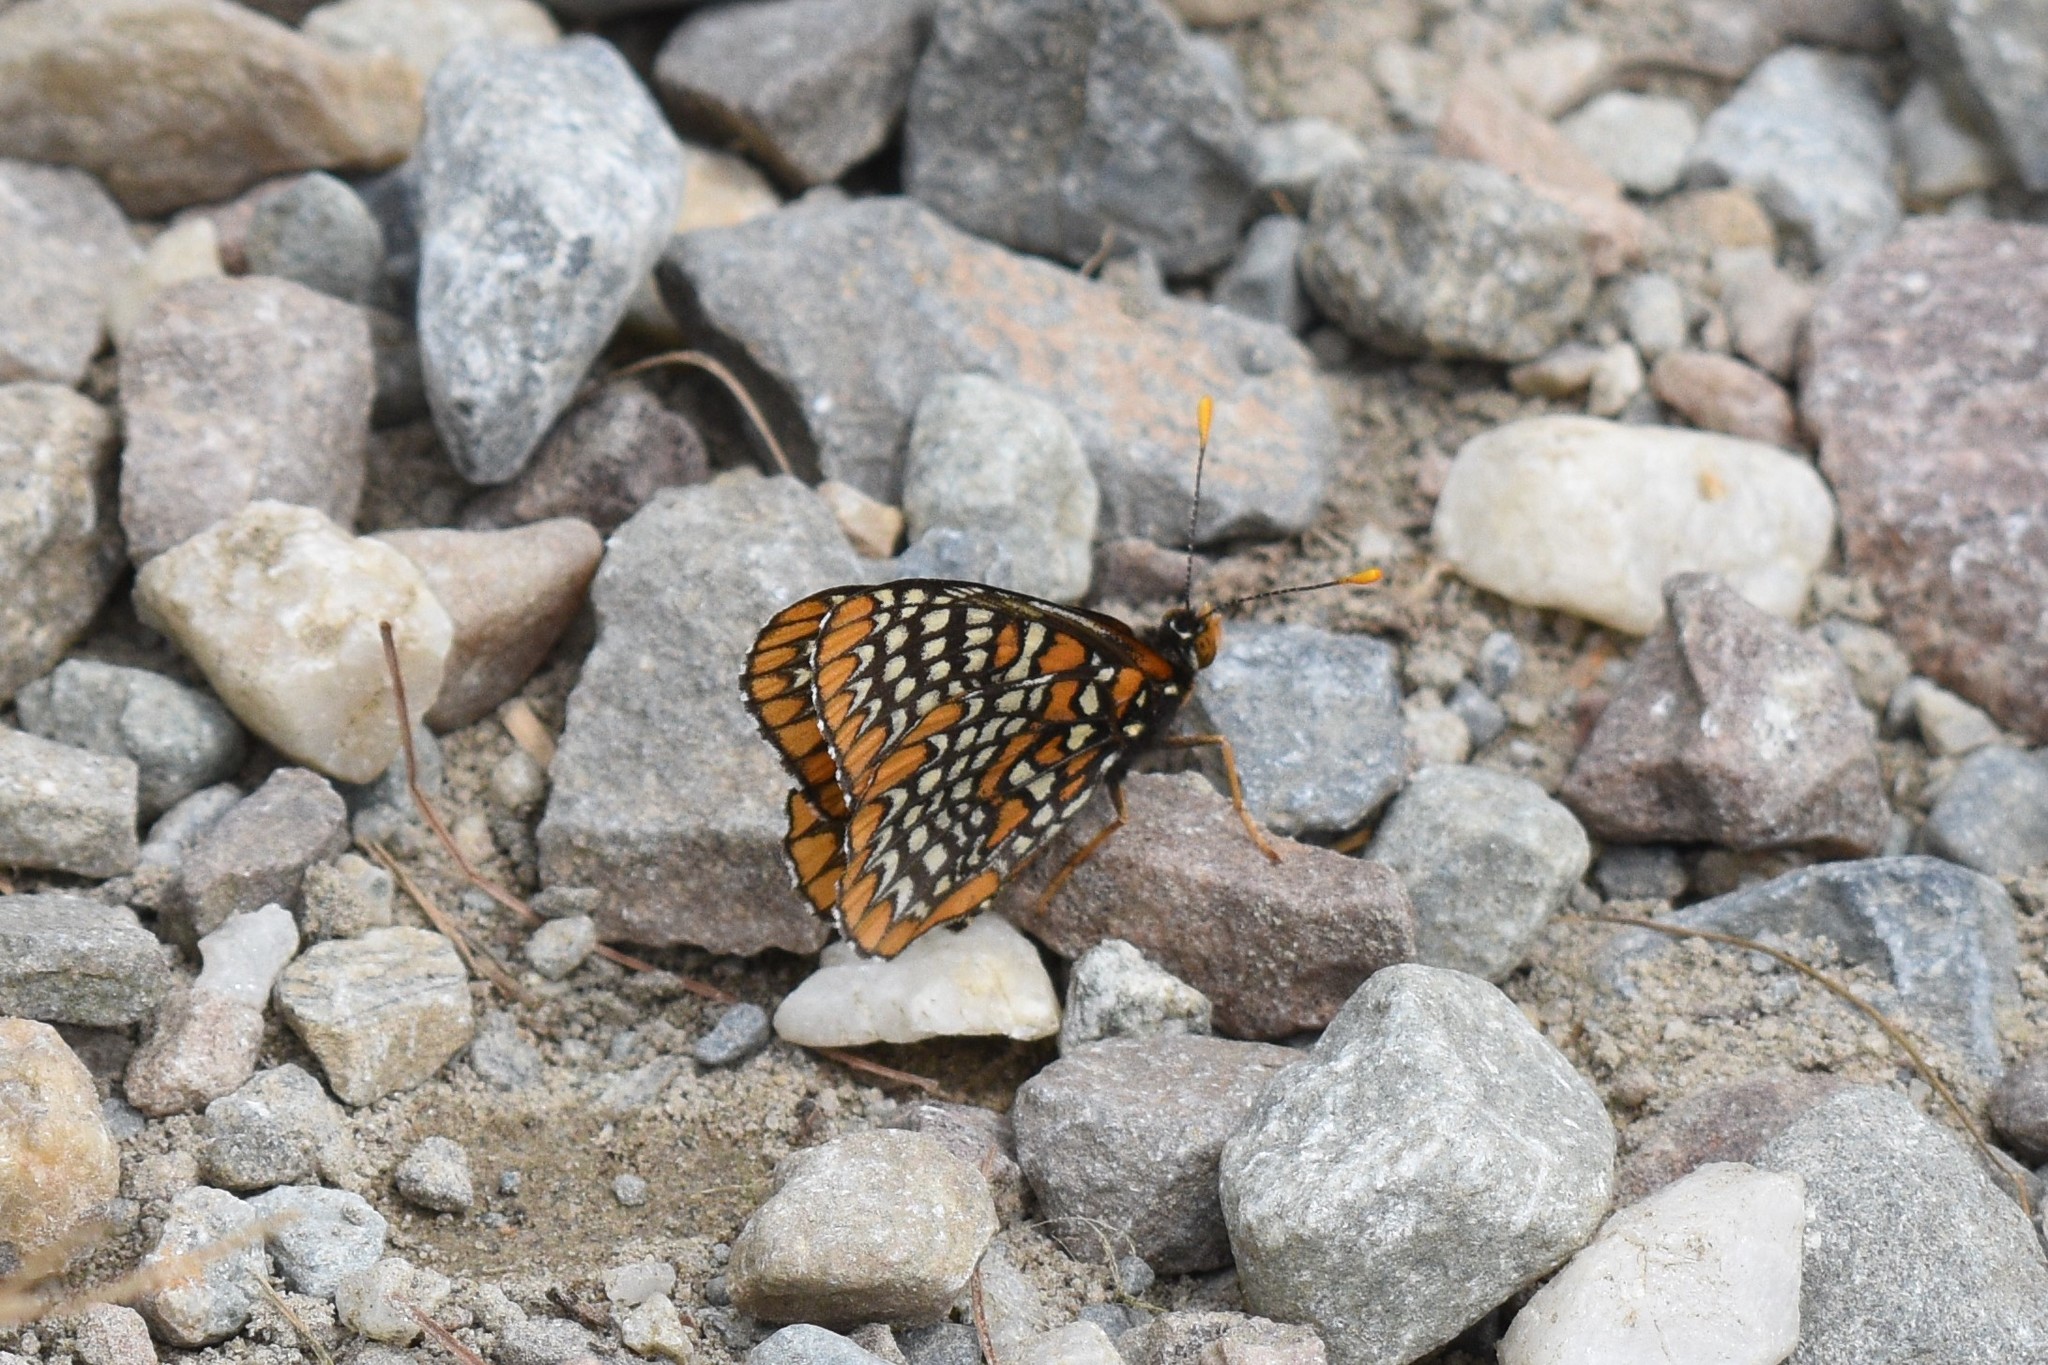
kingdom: Animalia
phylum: Arthropoda
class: Insecta
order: Lepidoptera
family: Nymphalidae
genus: Euphydryas
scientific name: Euphydryas phaeton
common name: Baltimore checkerspot
